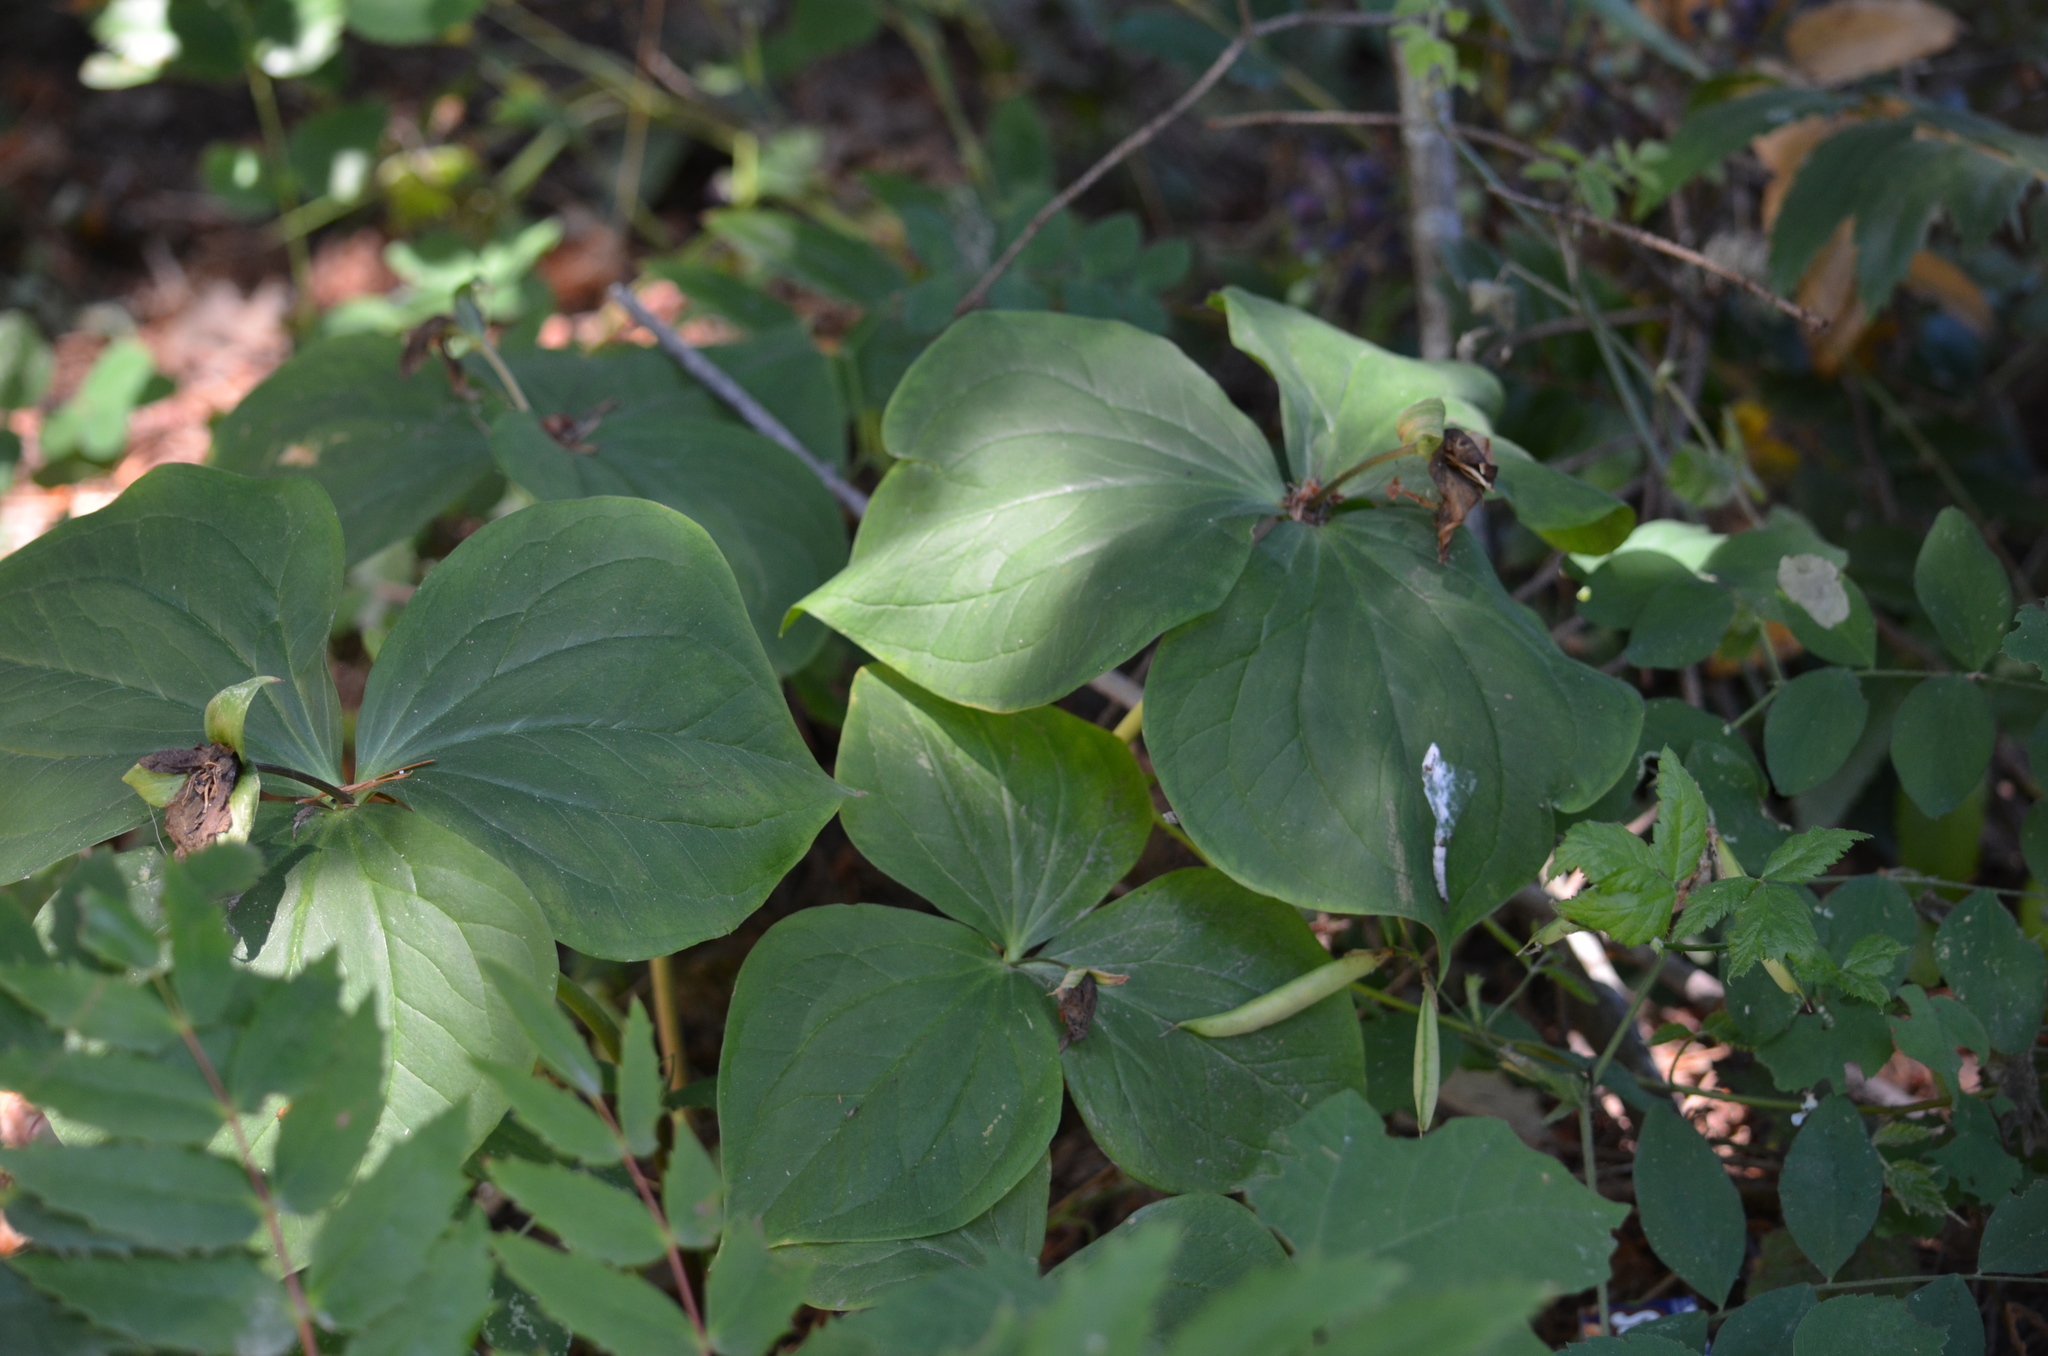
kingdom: Plantae
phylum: Tracheophyta
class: Liliopsida
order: Liliales
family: Melanthiaceae
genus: Trillium
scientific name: Trillium ovatum
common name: Pacific trillium
